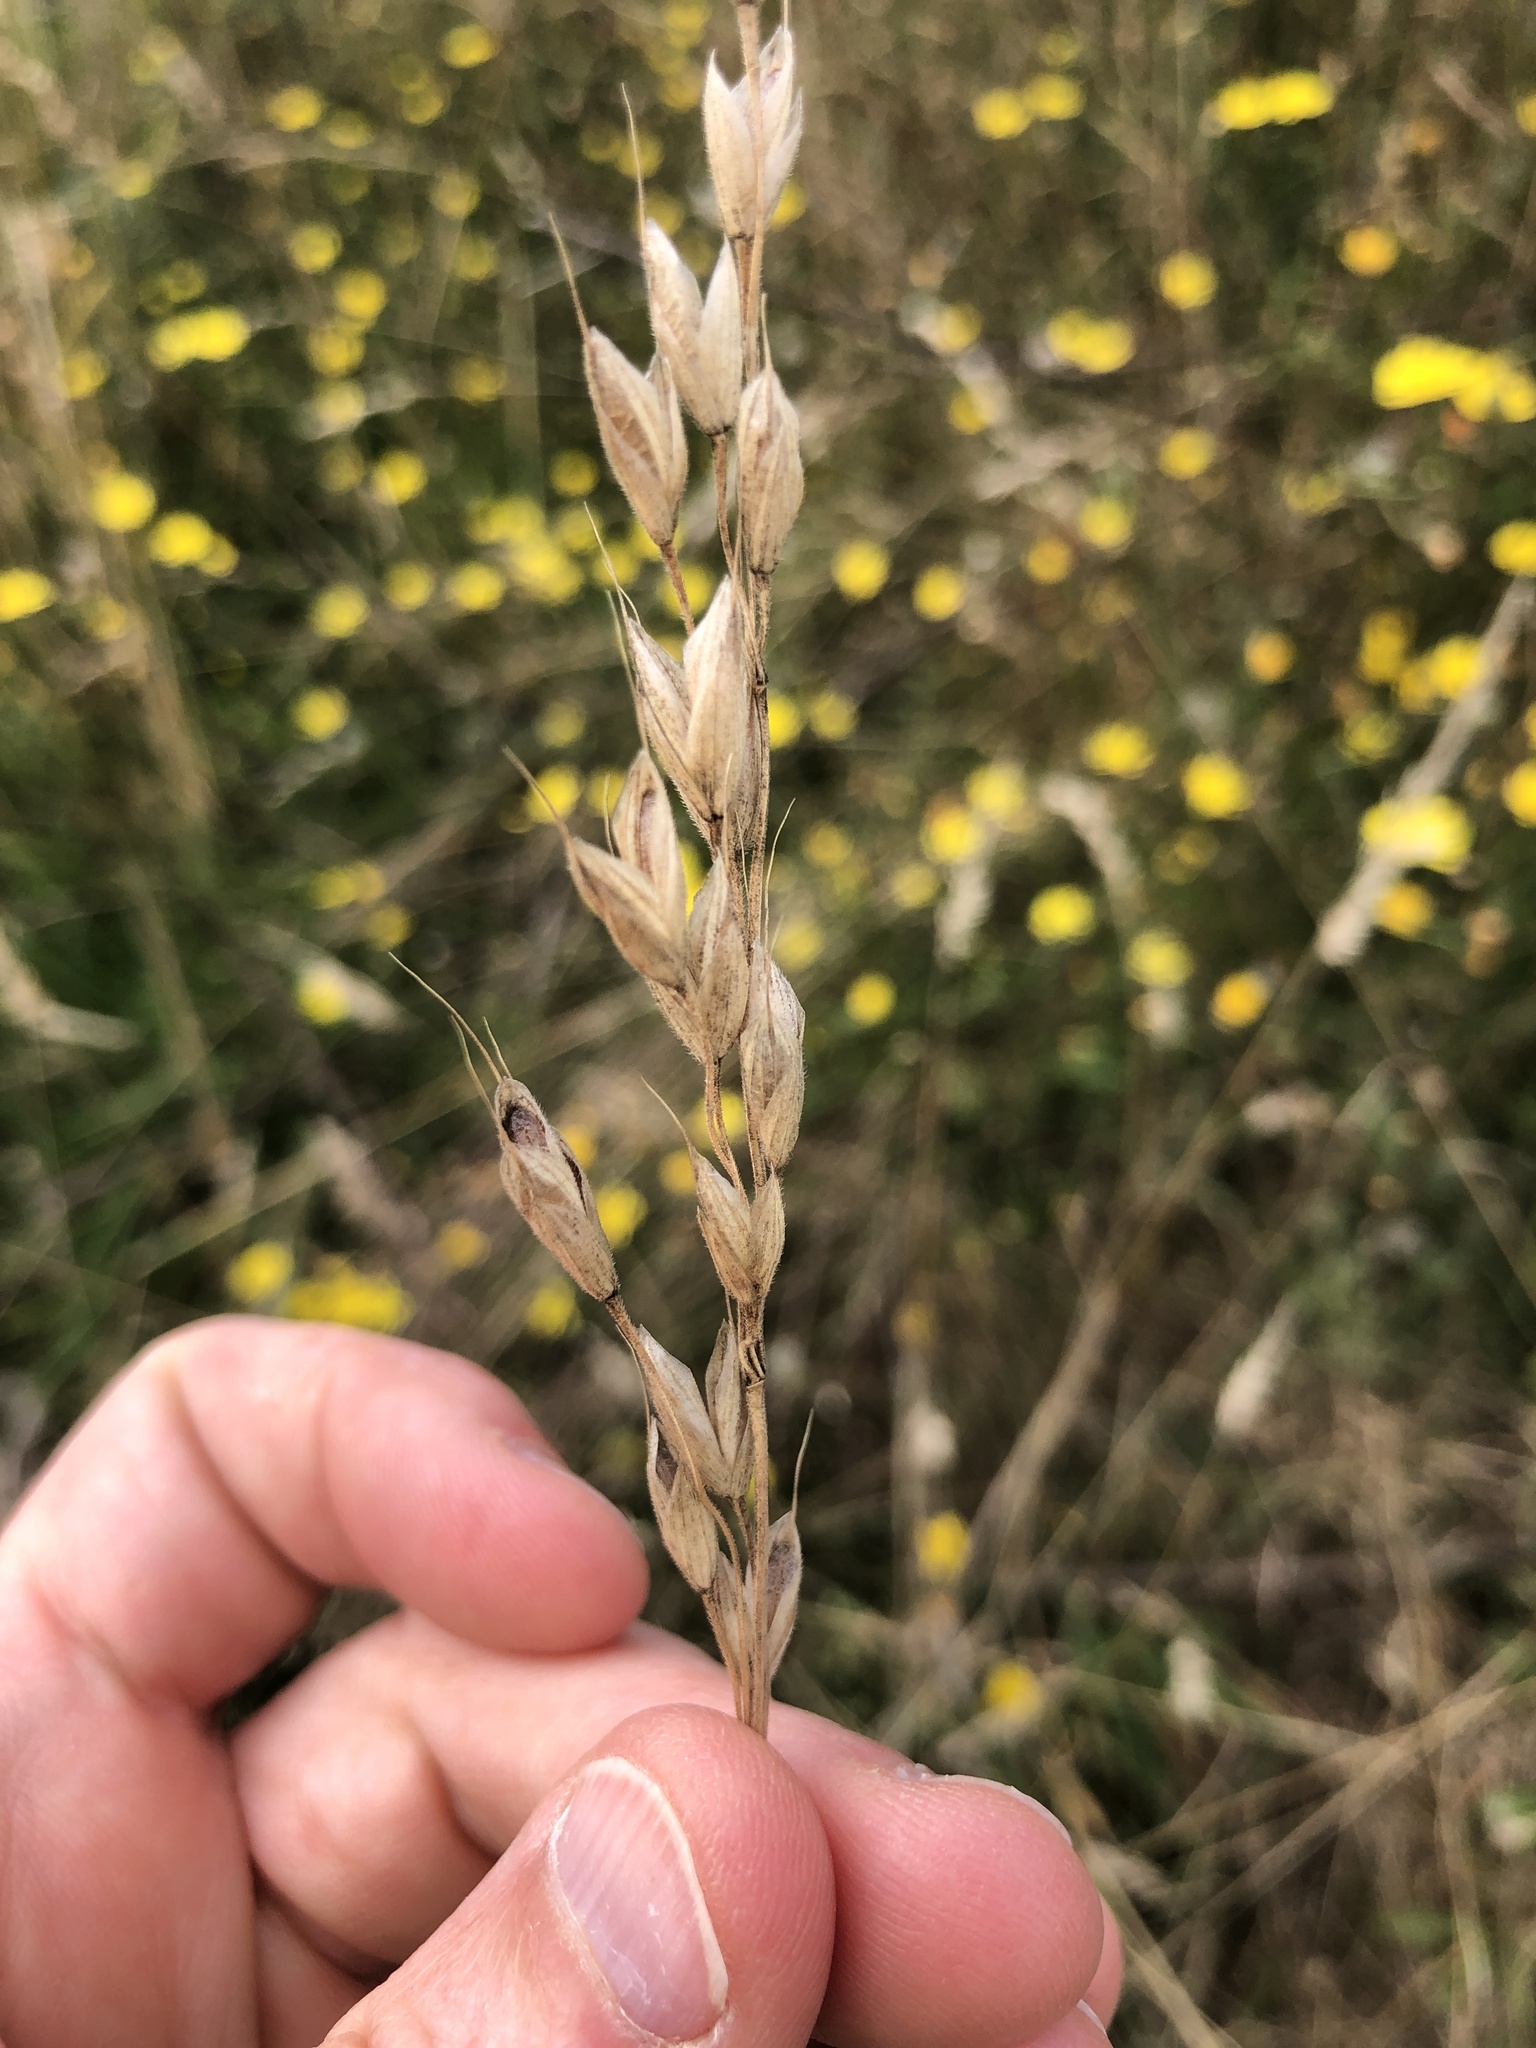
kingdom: Plantae
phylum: Tracheophyta
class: Liliopsida
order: Poales
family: Poaceae
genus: Bromus
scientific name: Bromus hordeaceus
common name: Soft brome
